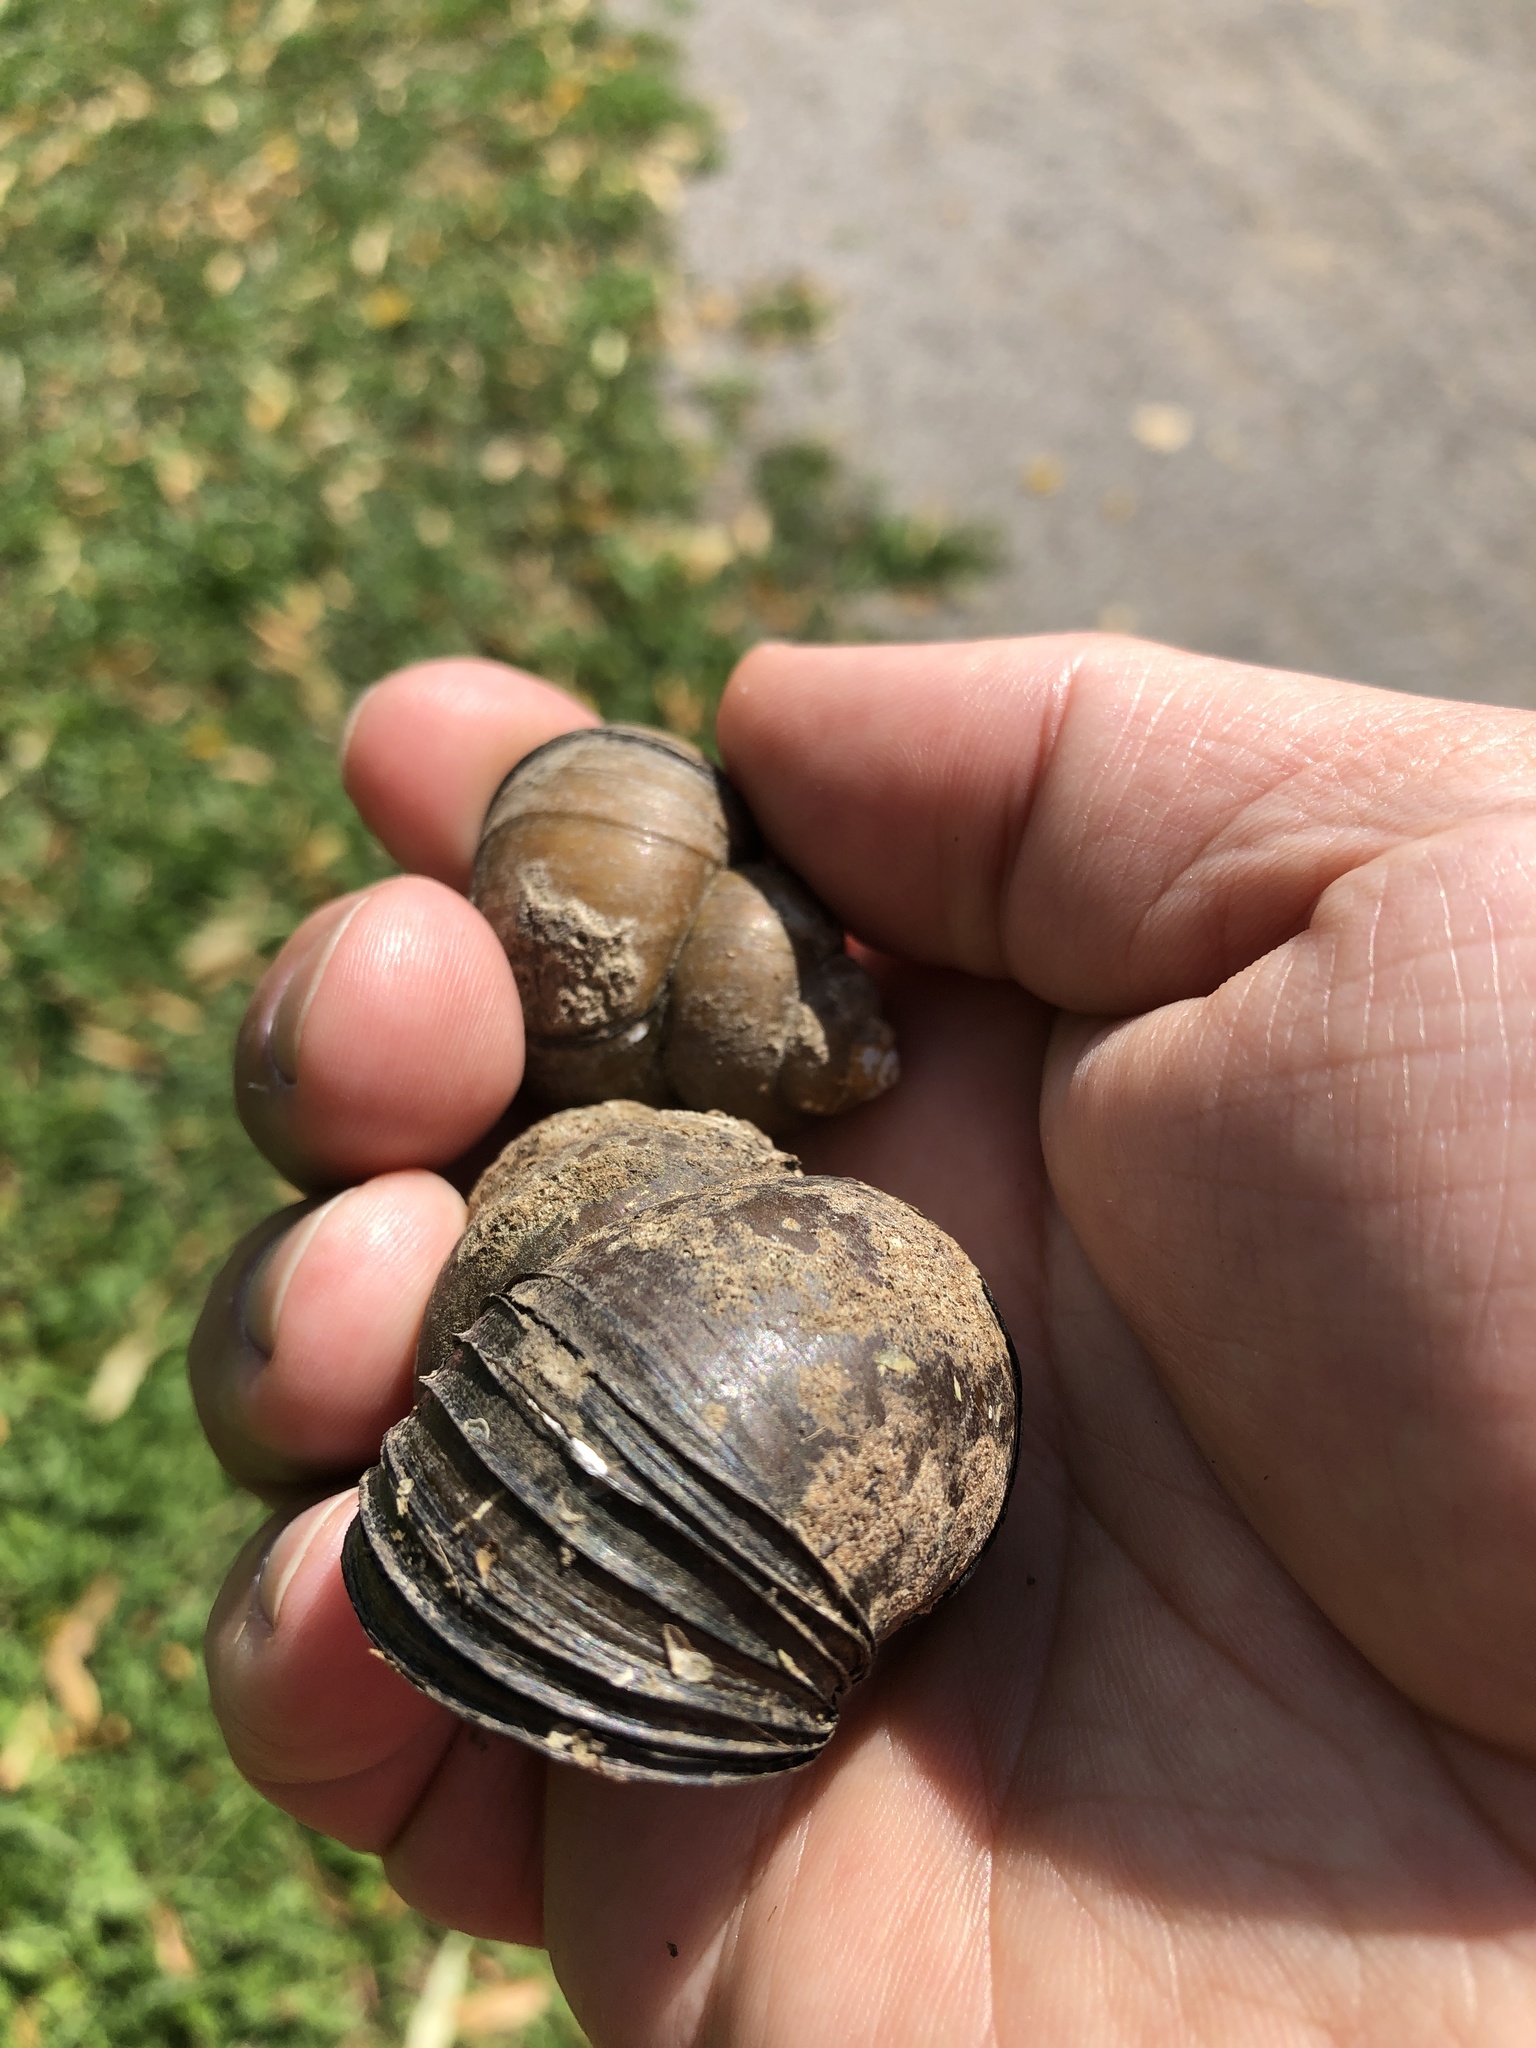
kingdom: Animalia
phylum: Mollusca
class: Gastropoda
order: Architaenioglossa
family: Viviparidae
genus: Cipangopaludina
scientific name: Cipangopaludina chinensis
